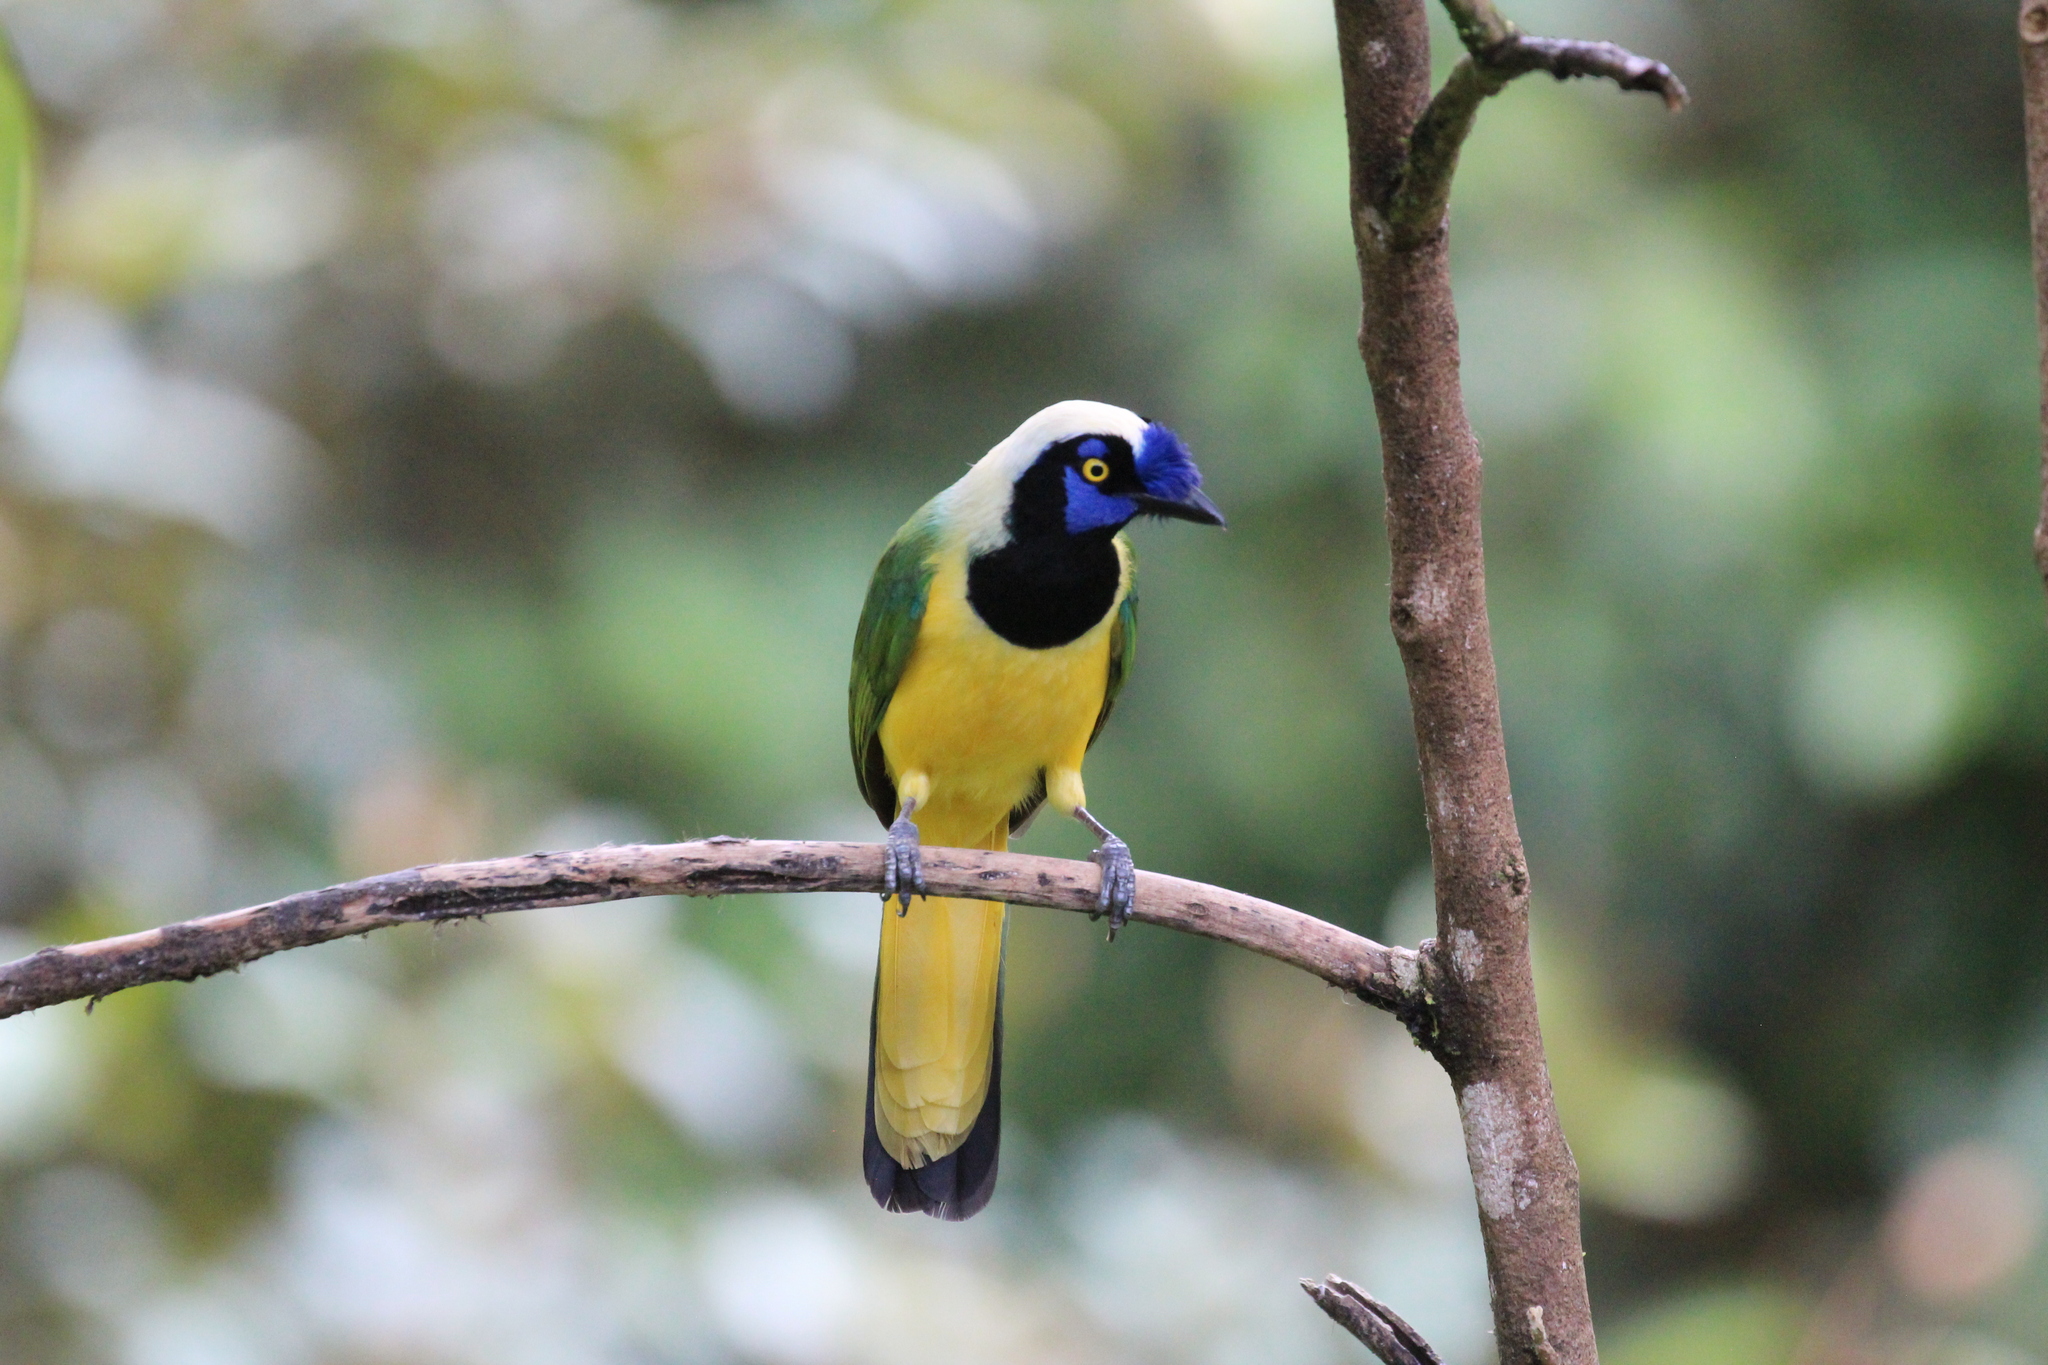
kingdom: Animalia
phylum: Chordata
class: Aves
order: Passeriformes
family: Corvidae
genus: Cyanocorax
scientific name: Cyanocorax yncas
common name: Green jay
